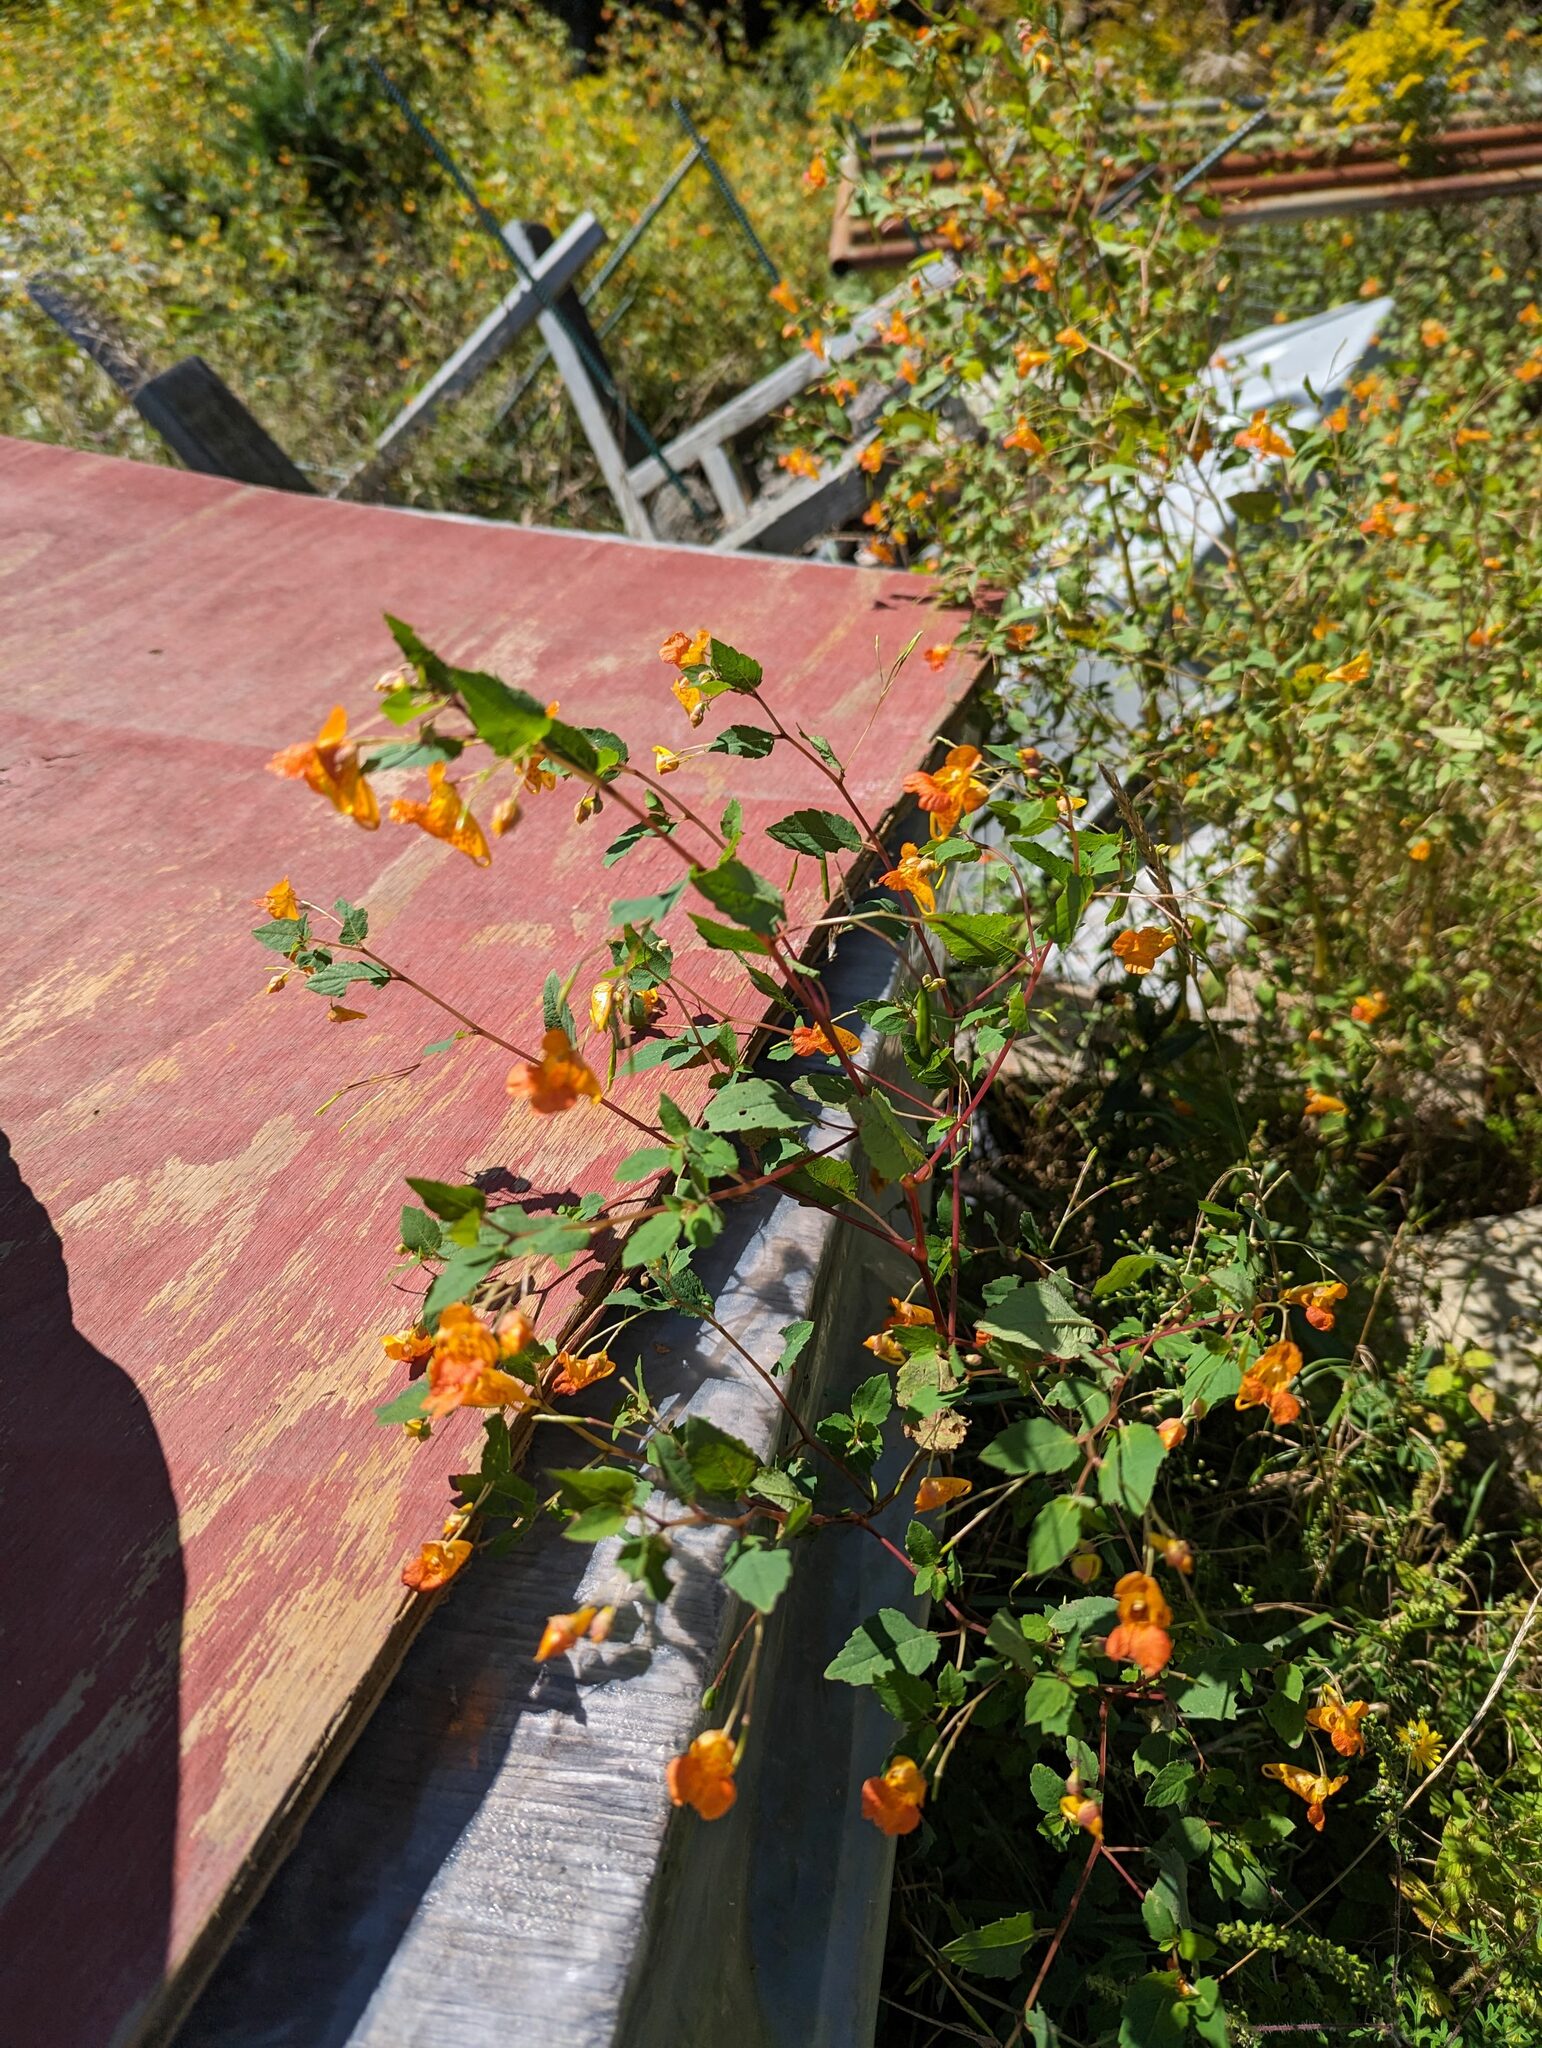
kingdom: Plantae
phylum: Tracheophyta
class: Magnoliopsida
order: Ericales
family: Balsaminaceae
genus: Impatiens
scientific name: Impatiens capensis
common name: Orange balsam
